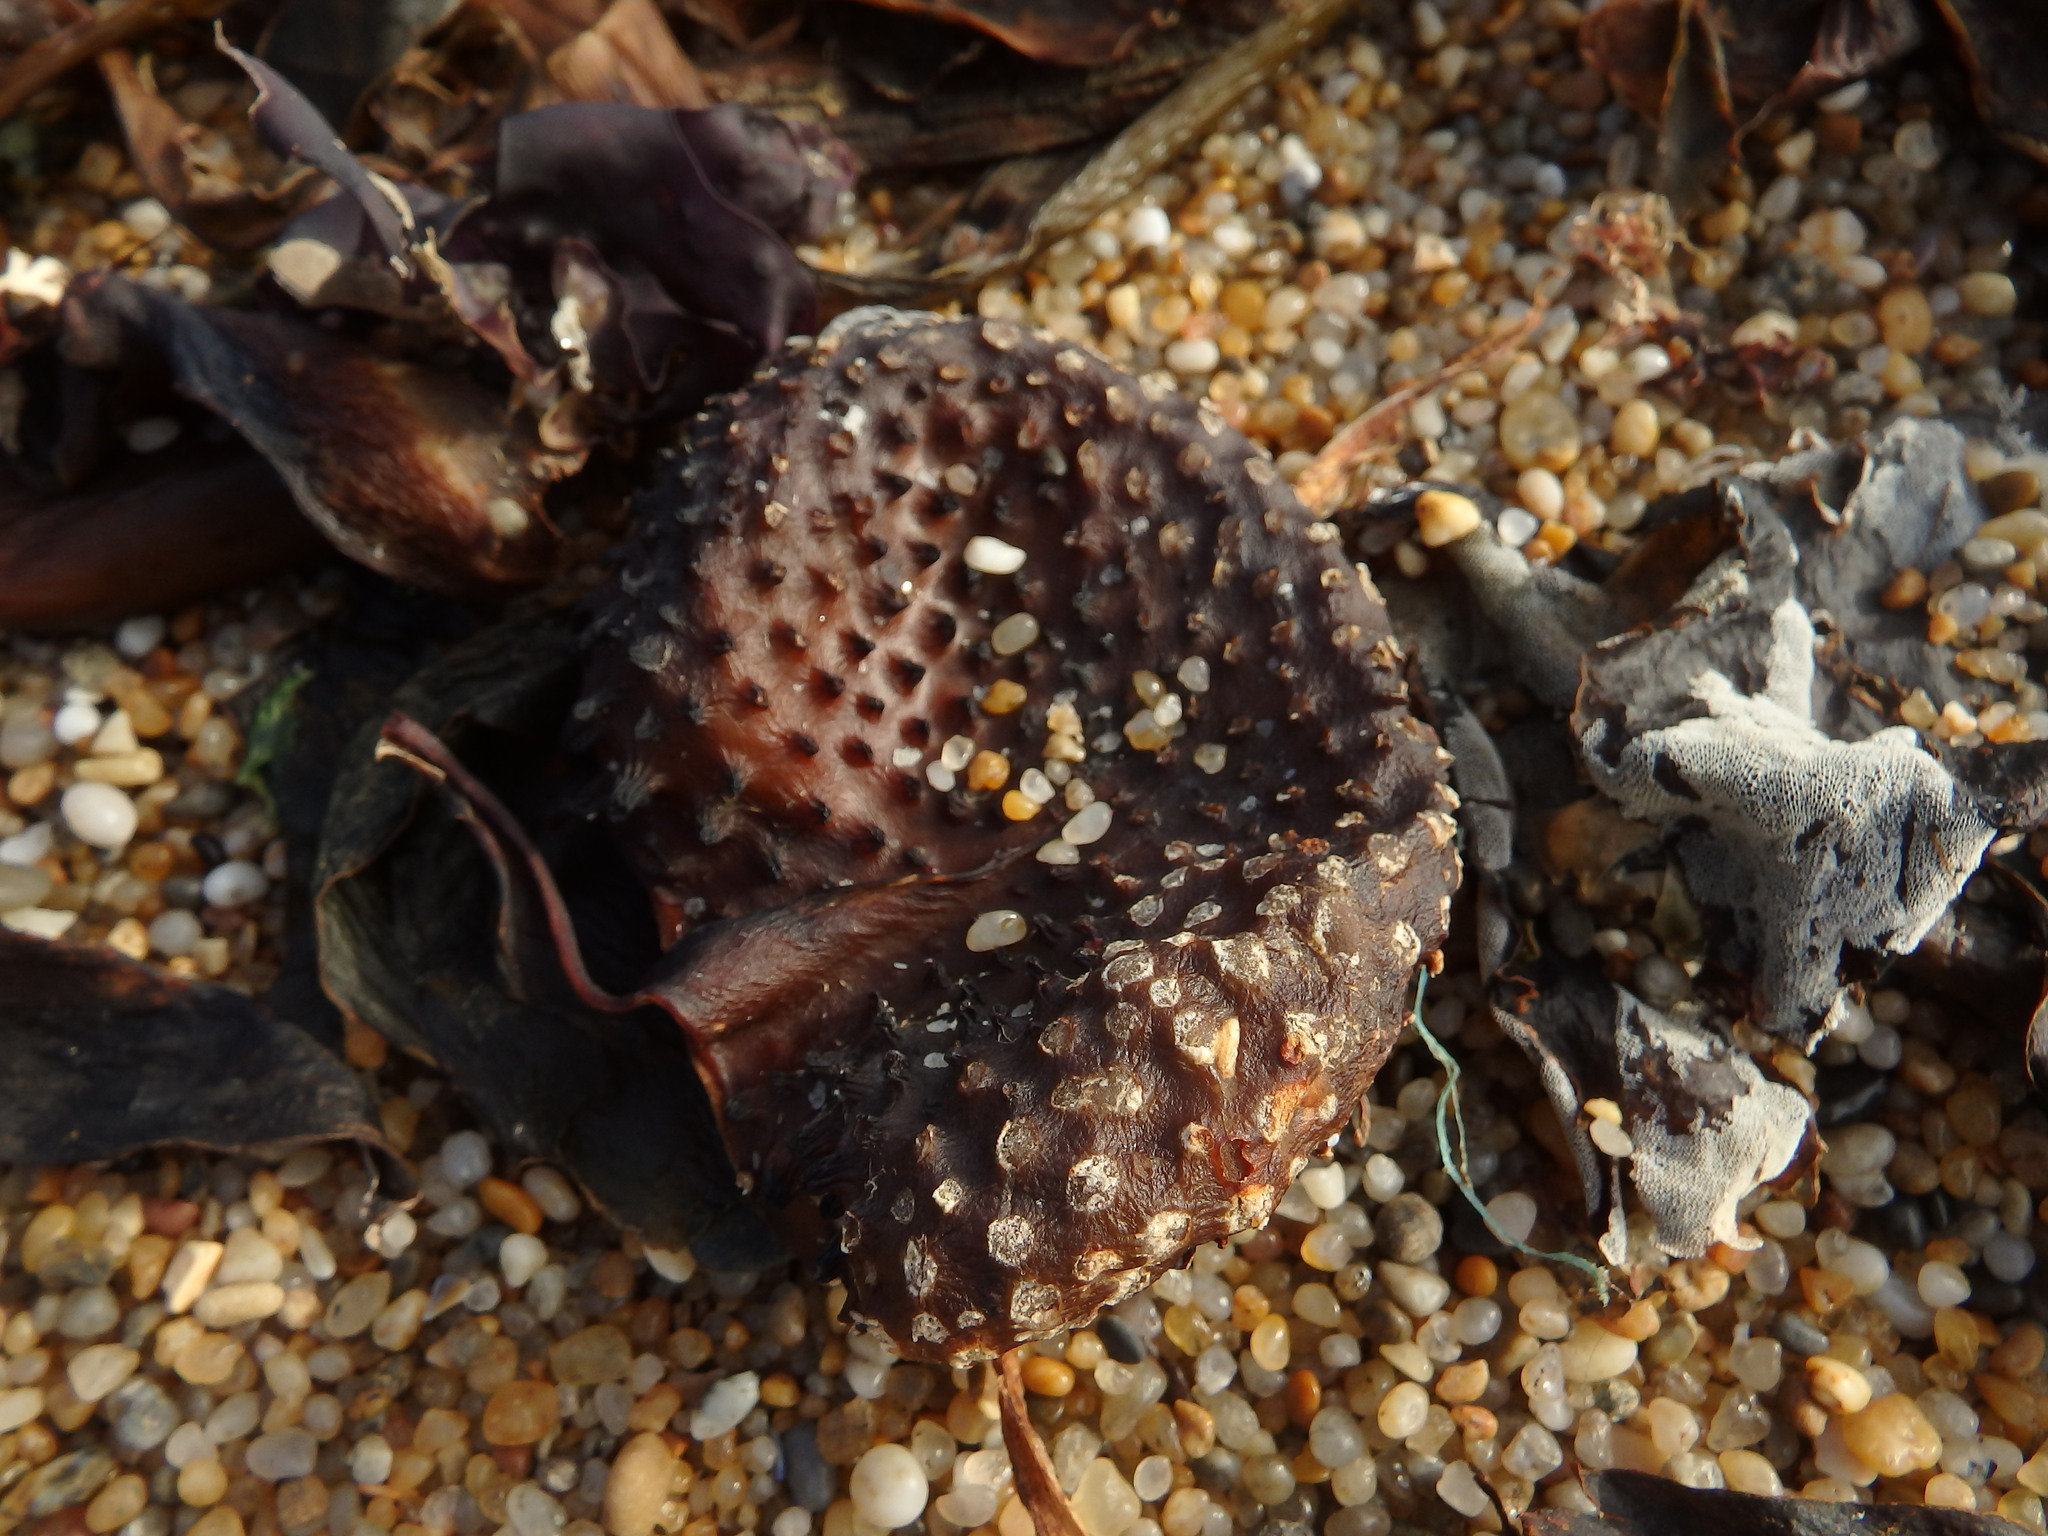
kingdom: Chromista
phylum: Ochrophyta
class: Phaeophyceae
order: Tilopteridales
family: Phyllariaceae
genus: Saccorhiza
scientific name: Saccorhiza polyschides
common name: Furbelows
